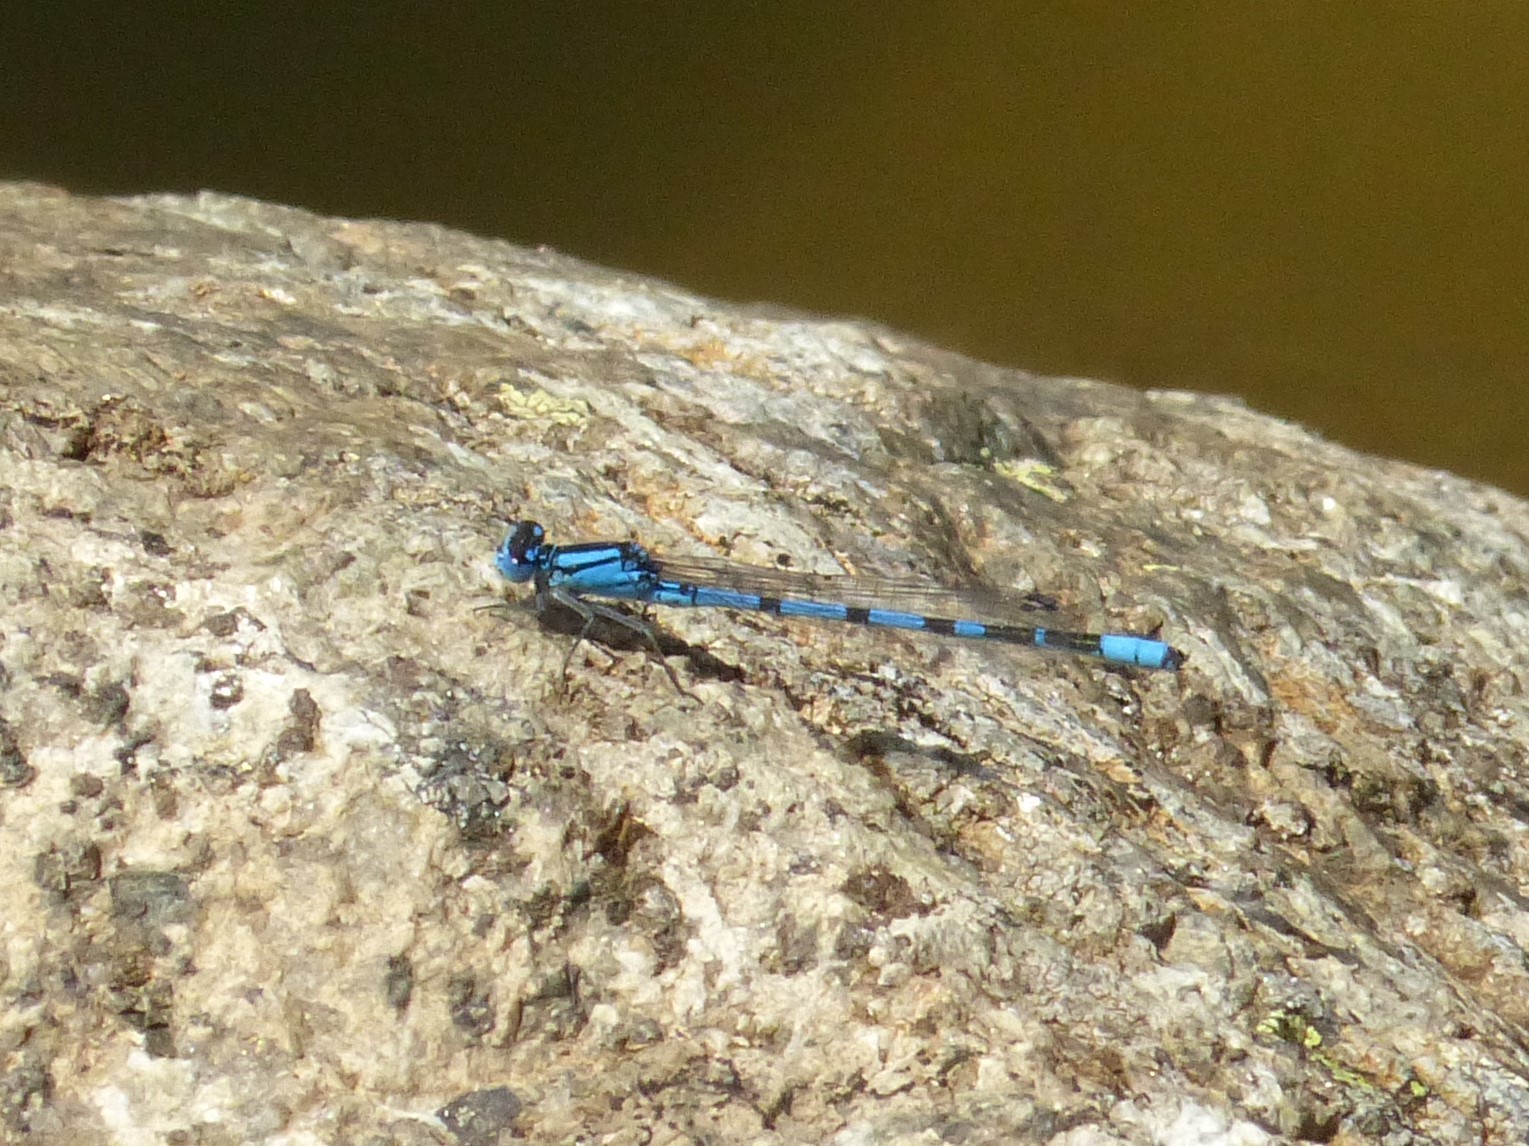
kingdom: Animalia
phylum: Arthropoda
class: Insecta
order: Odonata
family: Coenagrionidae
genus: Enallagma
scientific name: Enallagma cyathigerum
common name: Common blue damselfly
